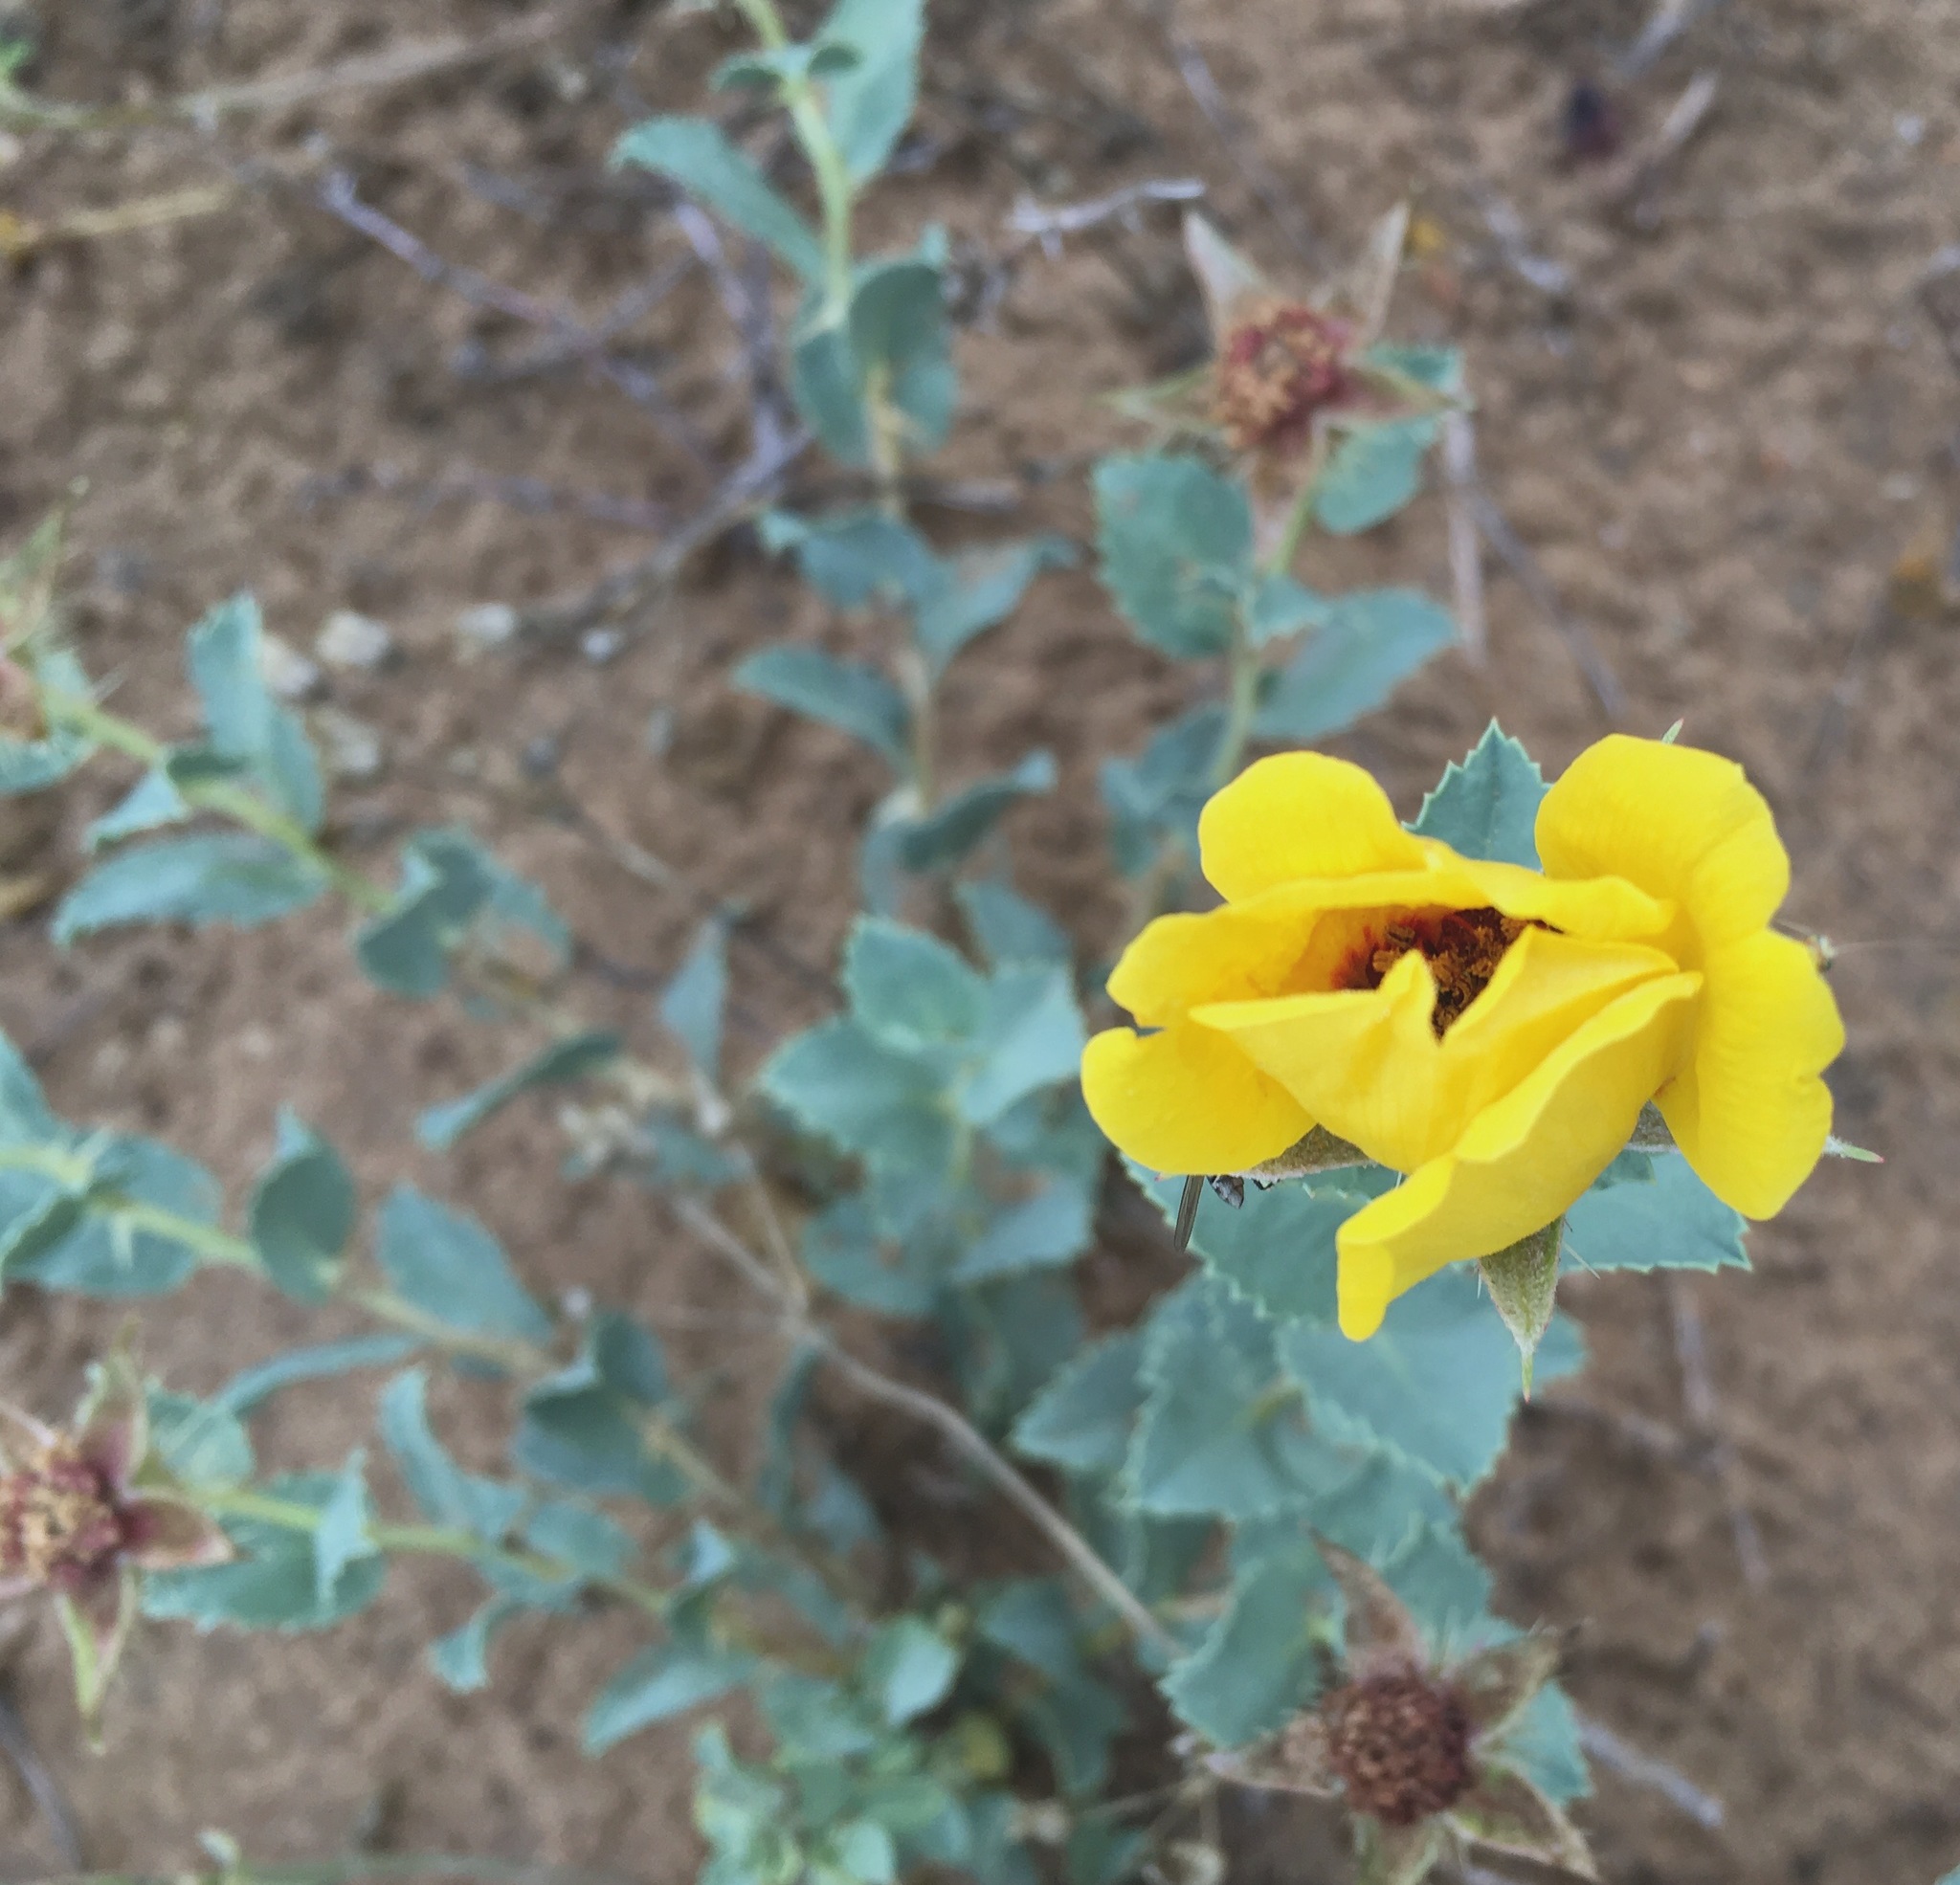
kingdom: Plantae
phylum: Tracheophyta
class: Magnoliopsida
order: Rosales
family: Rosaceae
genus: Rosa
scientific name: Rosa persica
